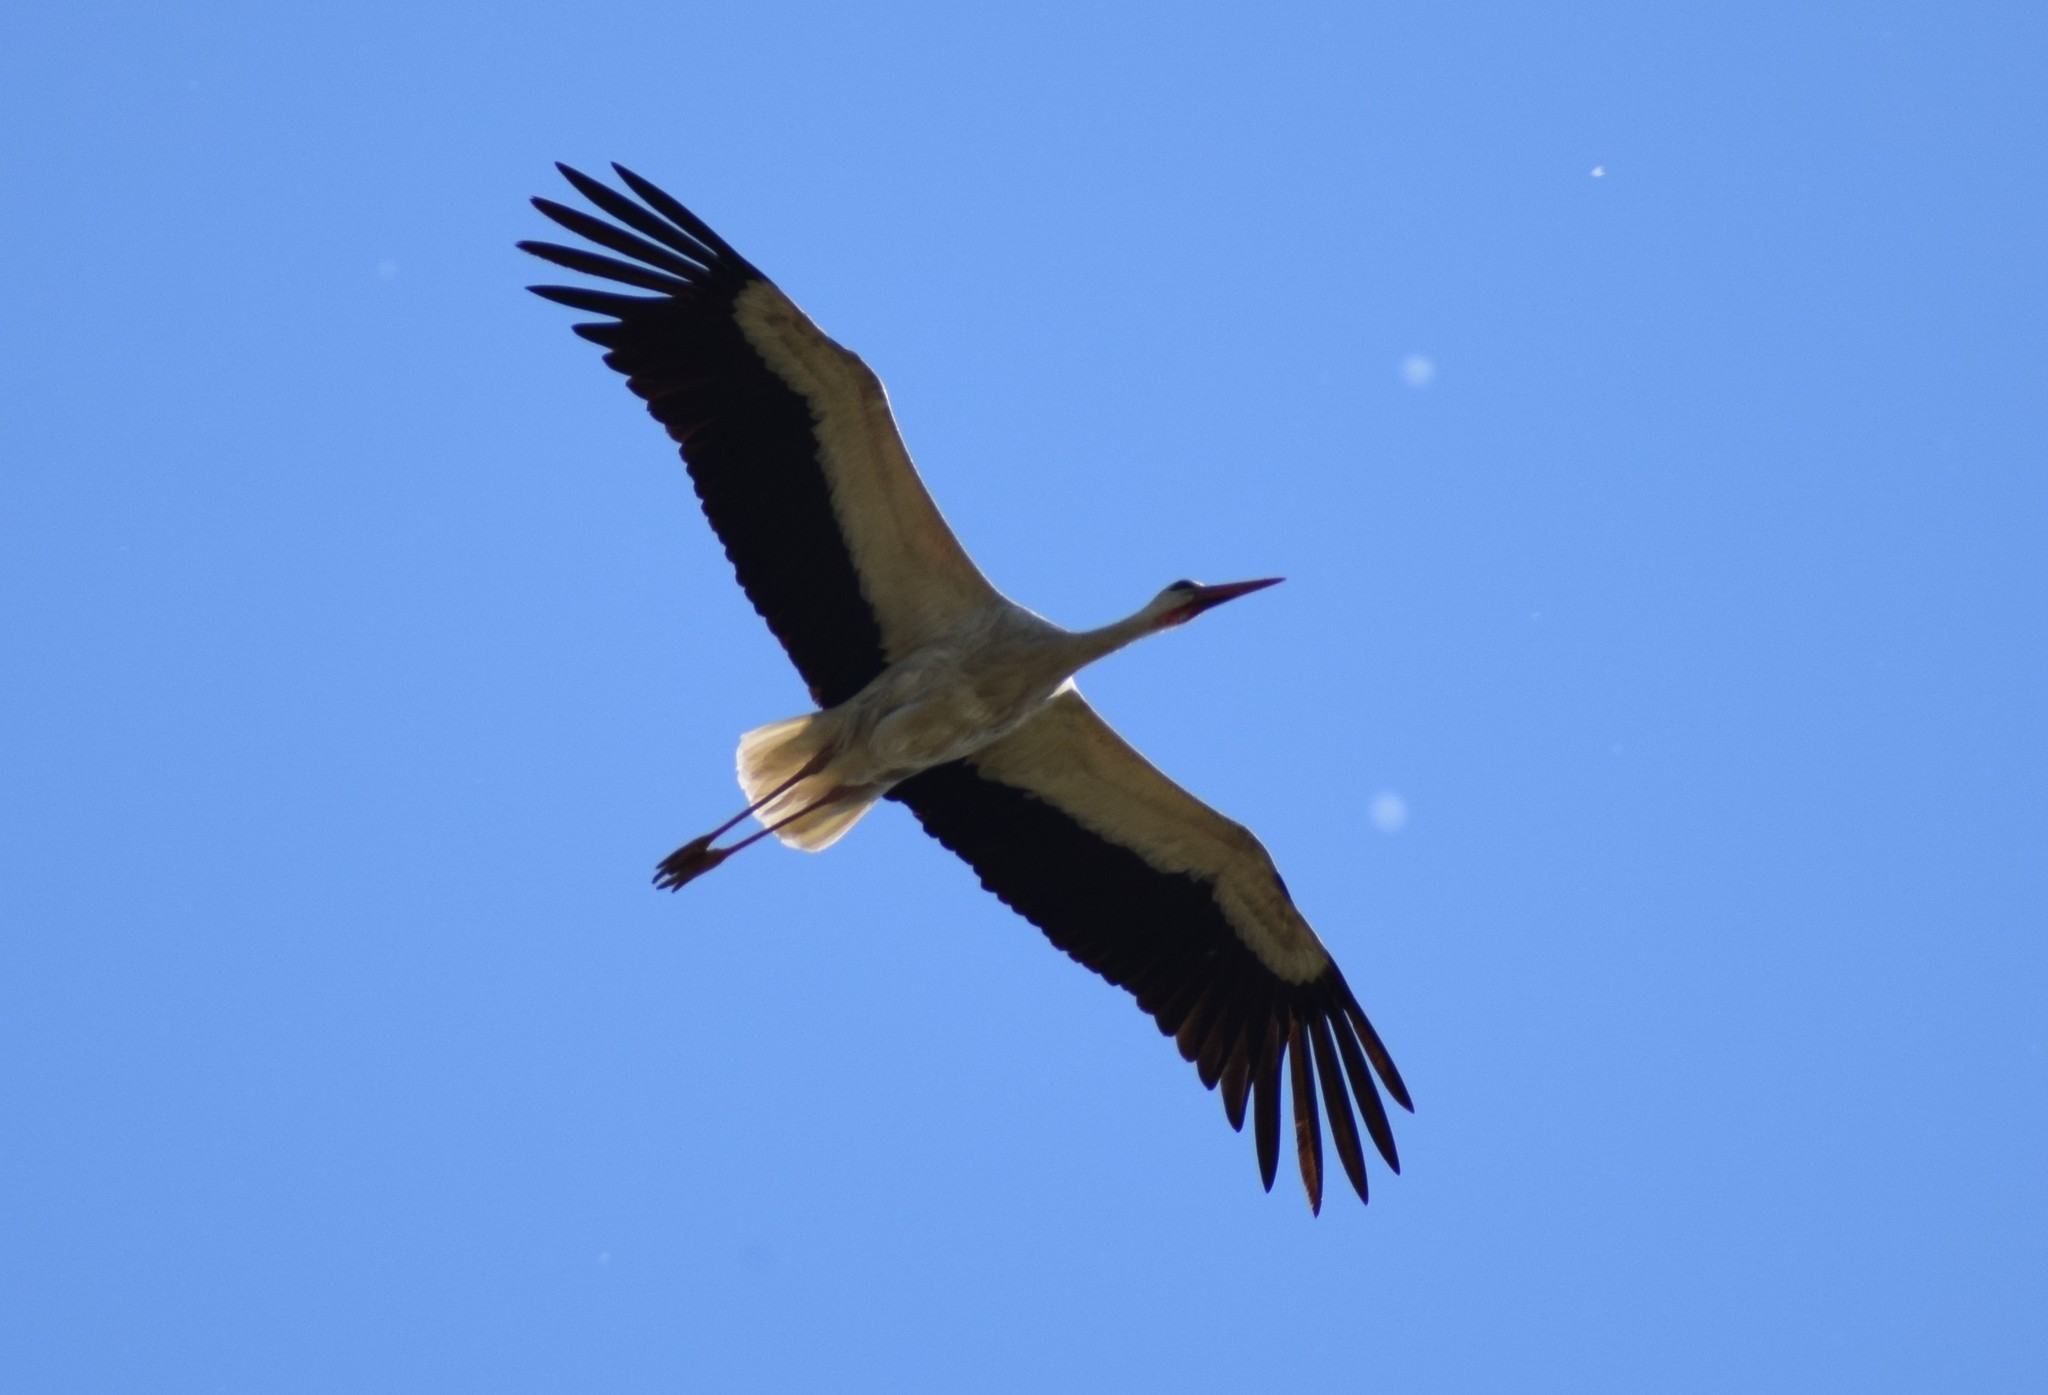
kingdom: Animalia
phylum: Chordata
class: Aves
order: Ciconiiformes
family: Ciconiidae
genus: Ciconia
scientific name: Ciconia ciconia
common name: White stork
